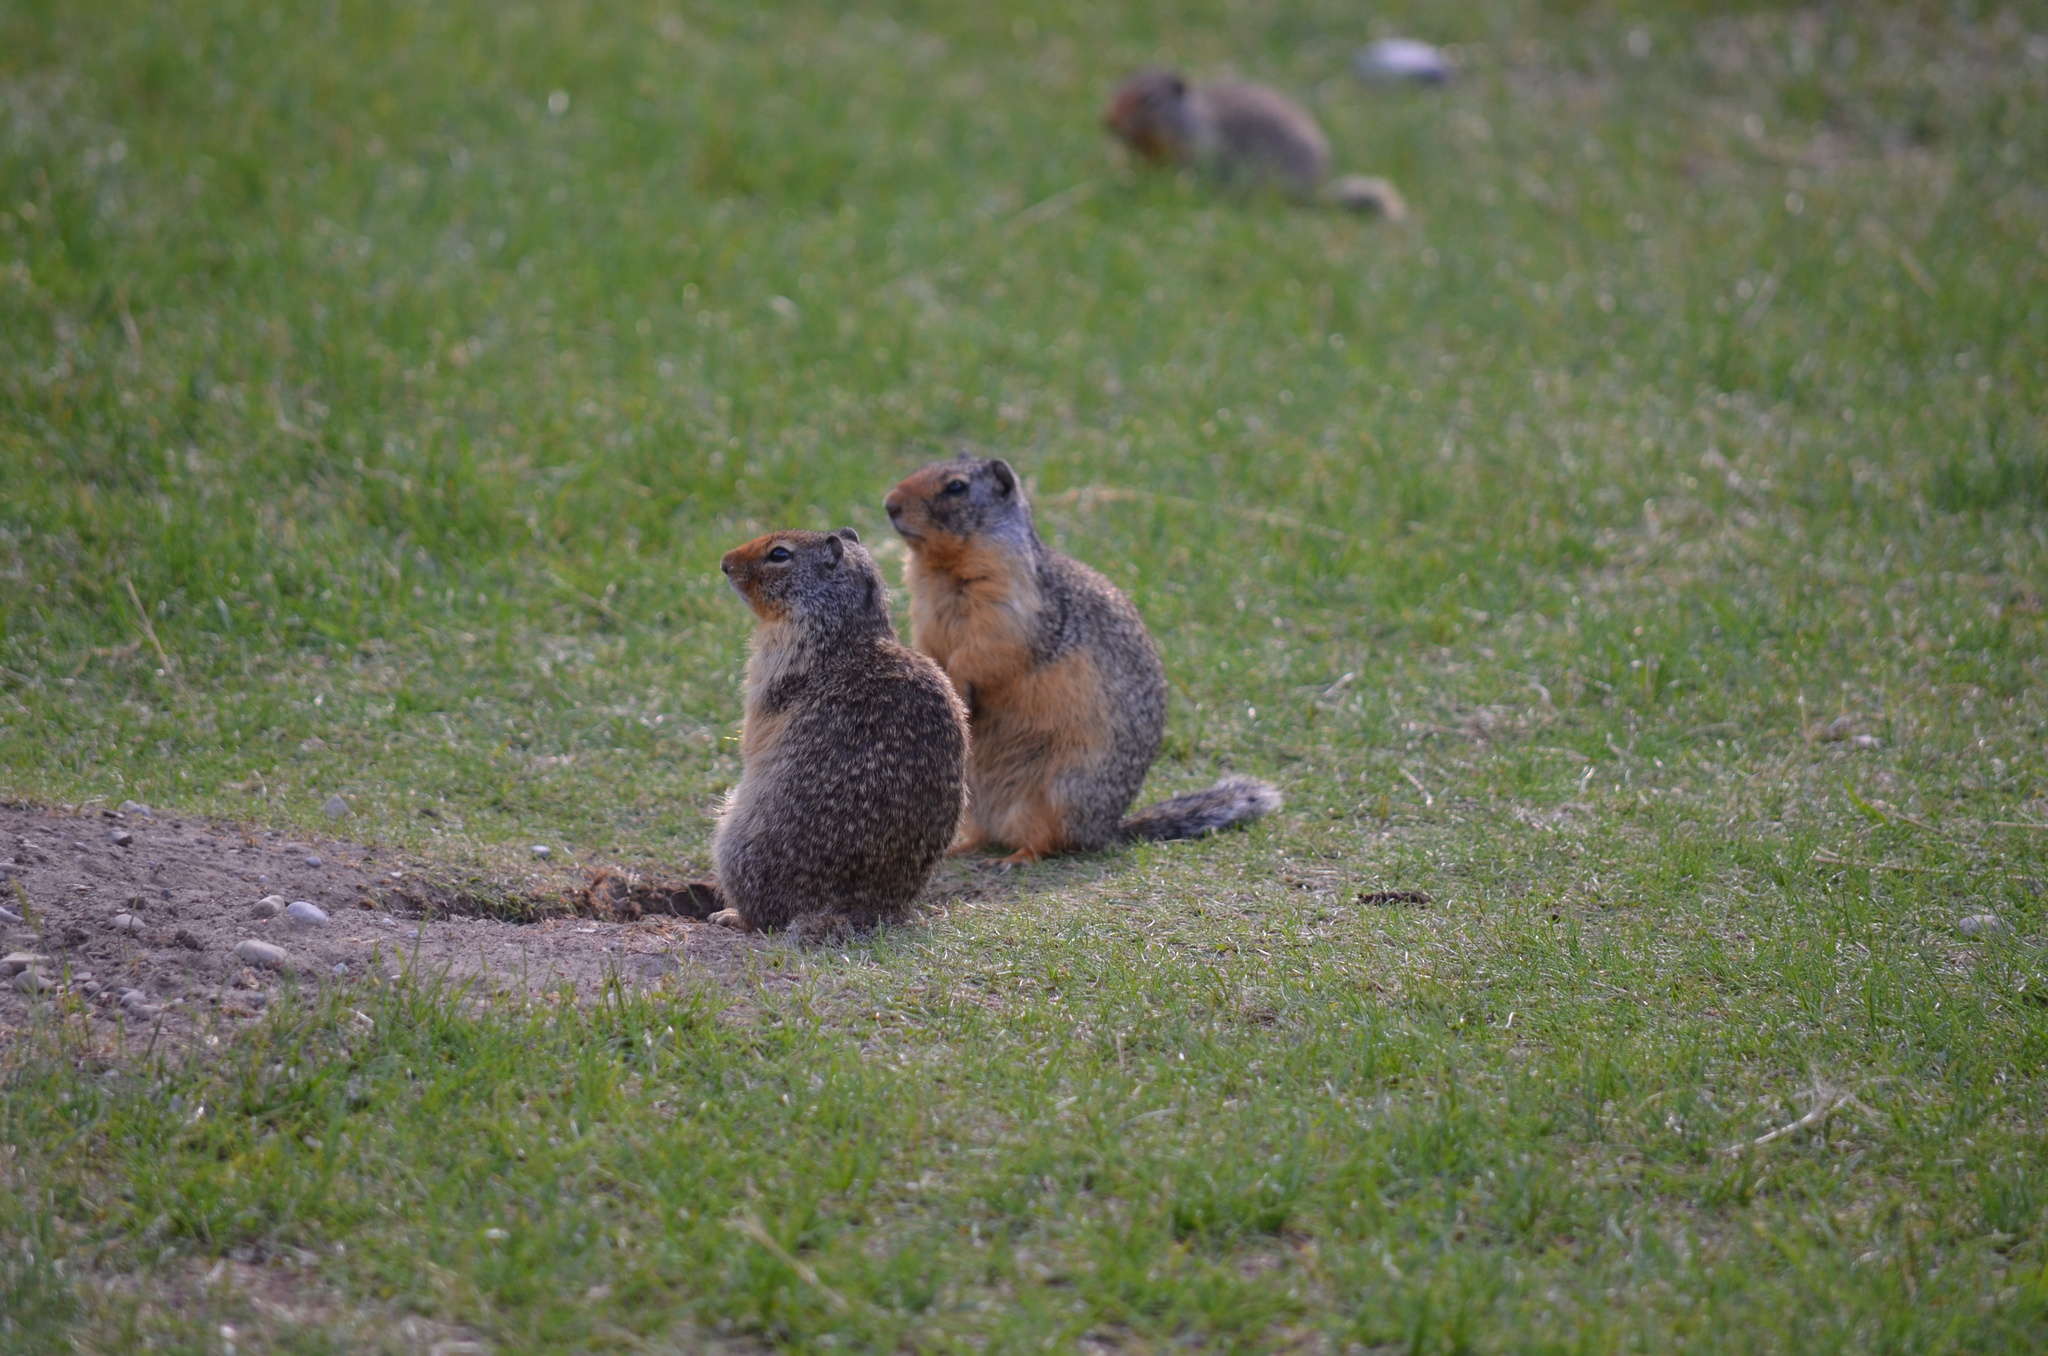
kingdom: Animalia
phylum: Chordata
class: Mammalia
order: Rodentia
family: Sciuridae
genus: Urocitellus
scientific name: Urocitellus columbianus
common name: Columbian ground squirrel
